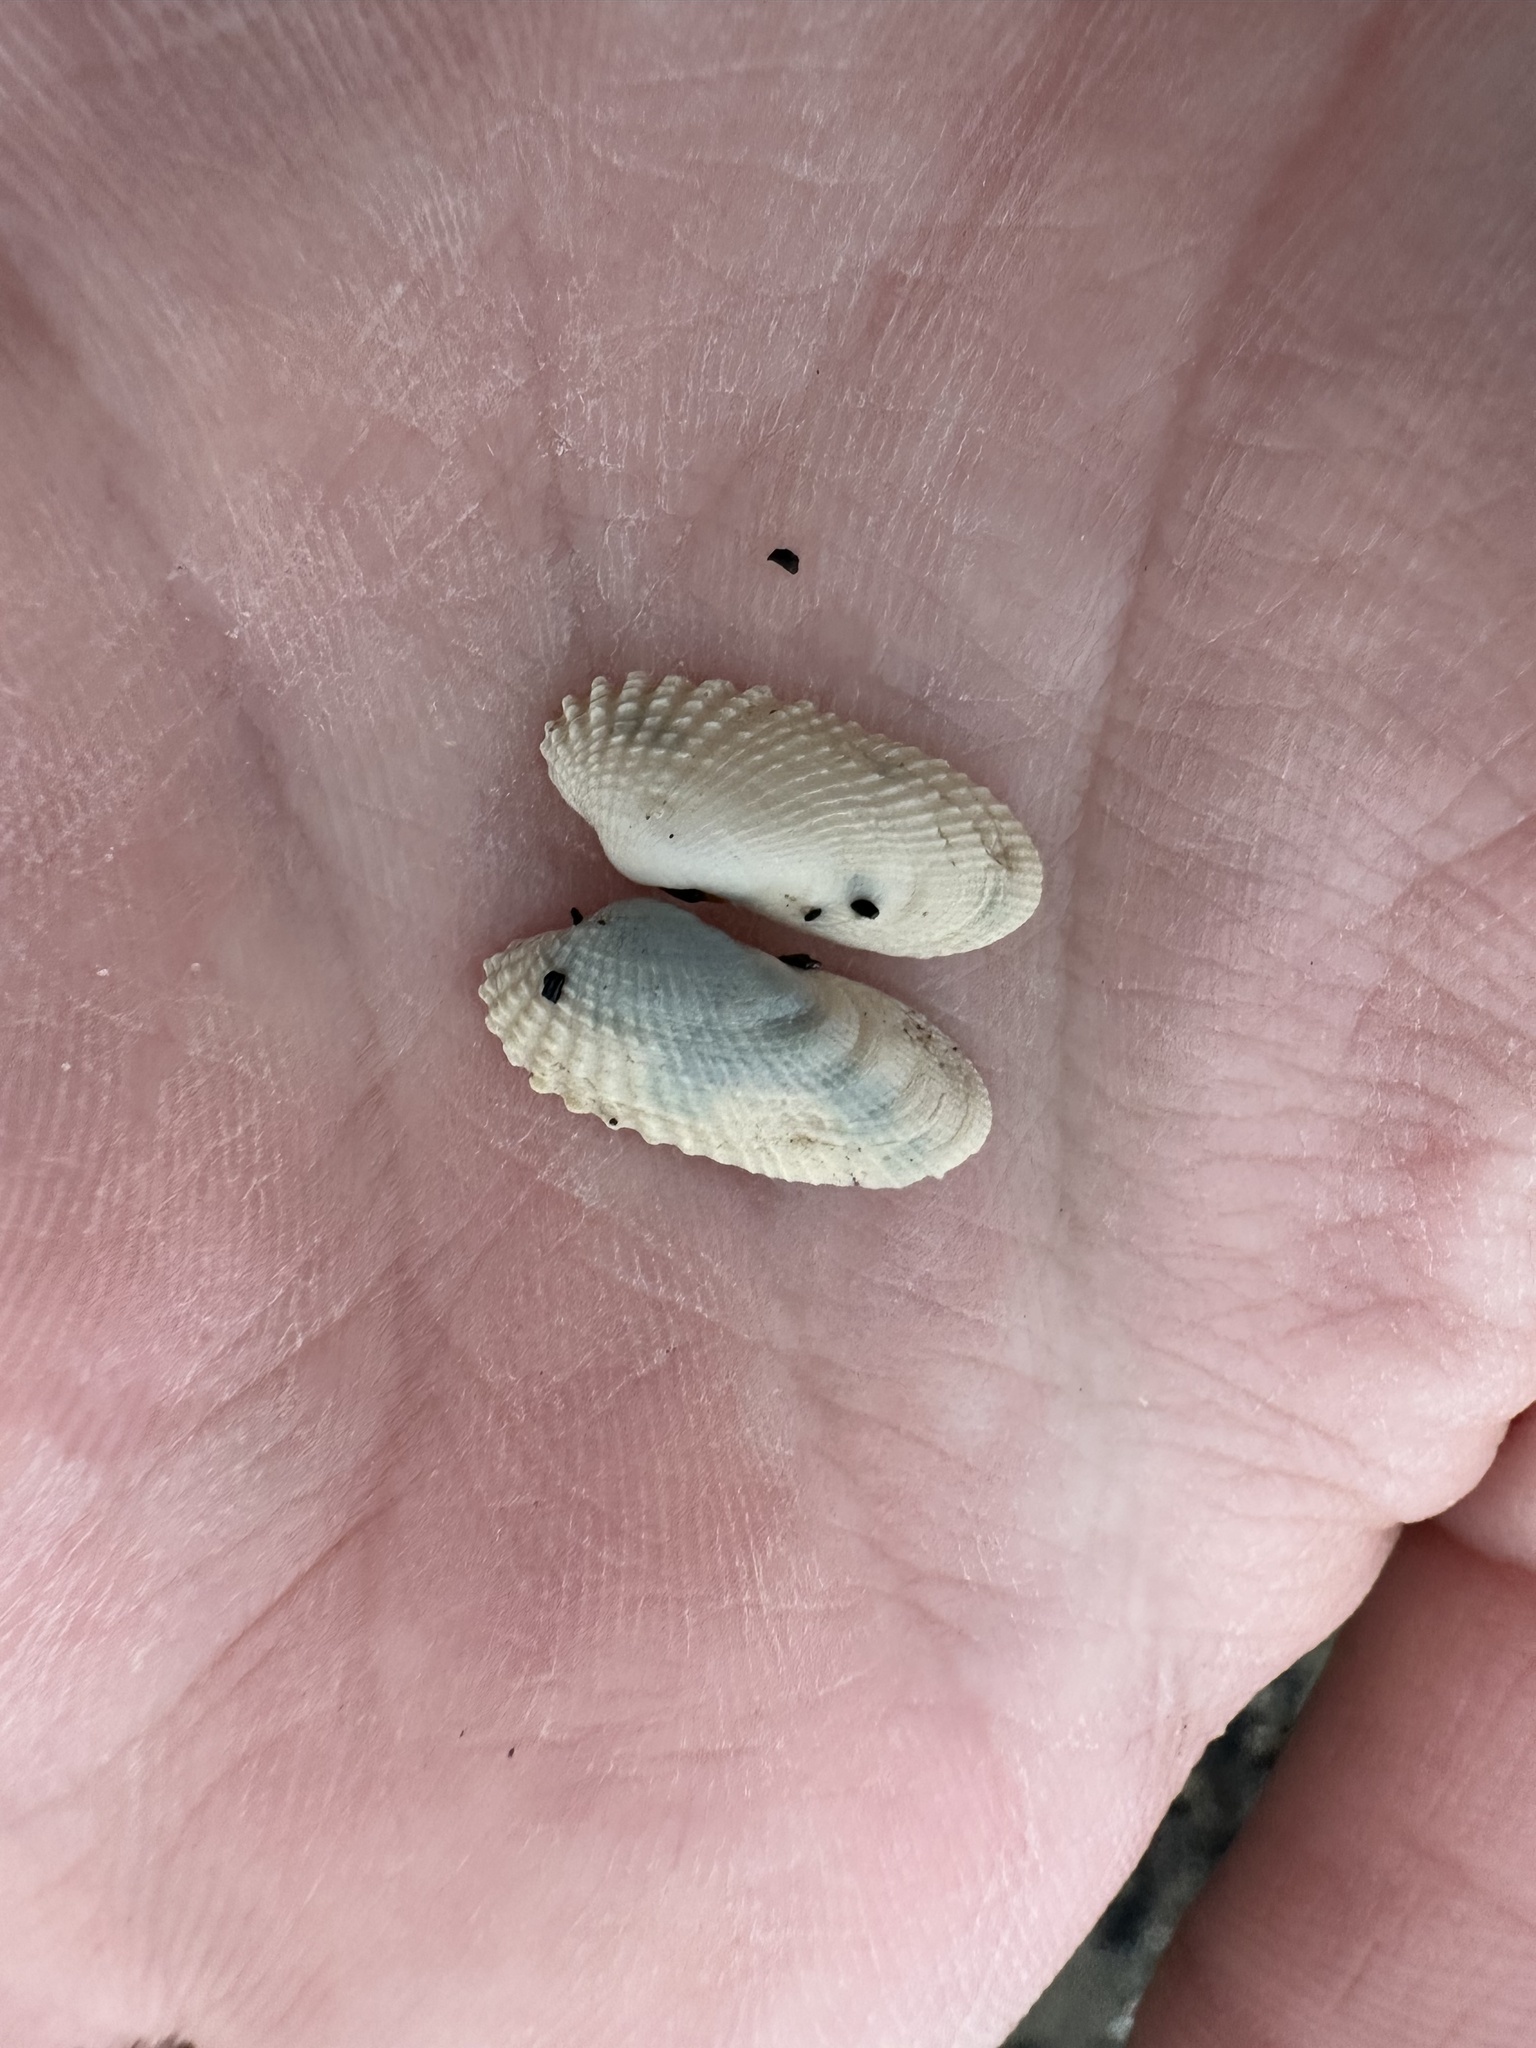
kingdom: Animalia
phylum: Mollusca
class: Bivalvia
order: Venerida
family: Veneridae
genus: Petricolaria
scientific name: Petricolaria pholadiformis
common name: American piddock
